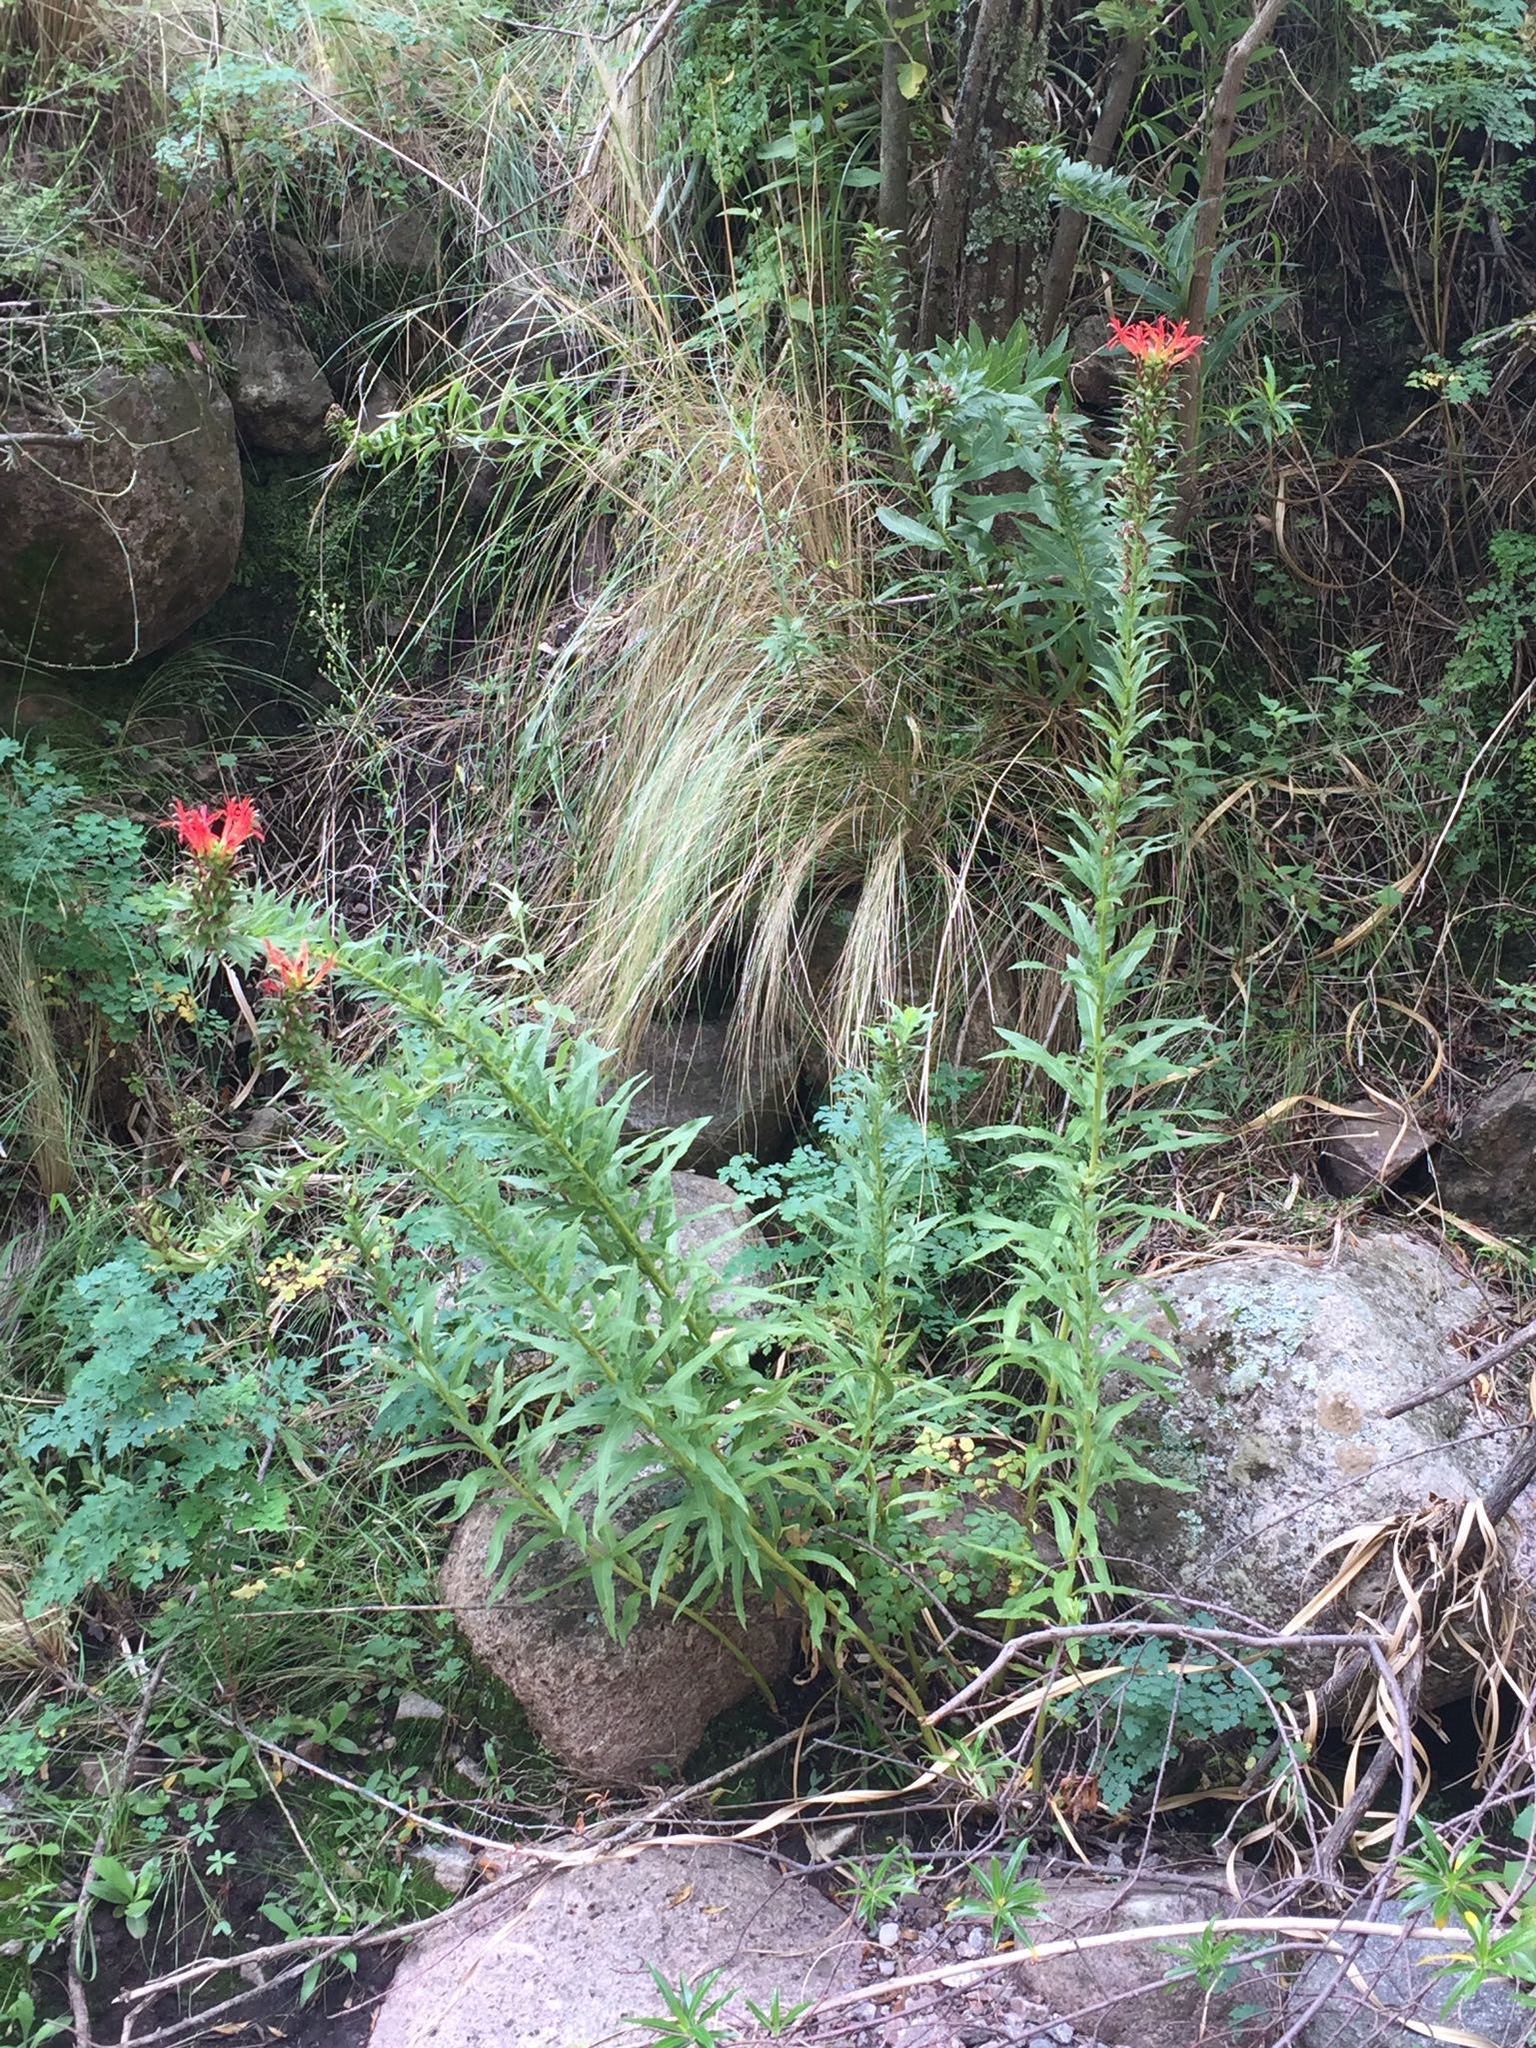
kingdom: Plantae
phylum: Tracheophyta
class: Magnoliopsida
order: Asterales
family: Campanulaceae
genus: Siphocampylus
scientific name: Siphocampylus foliosus
